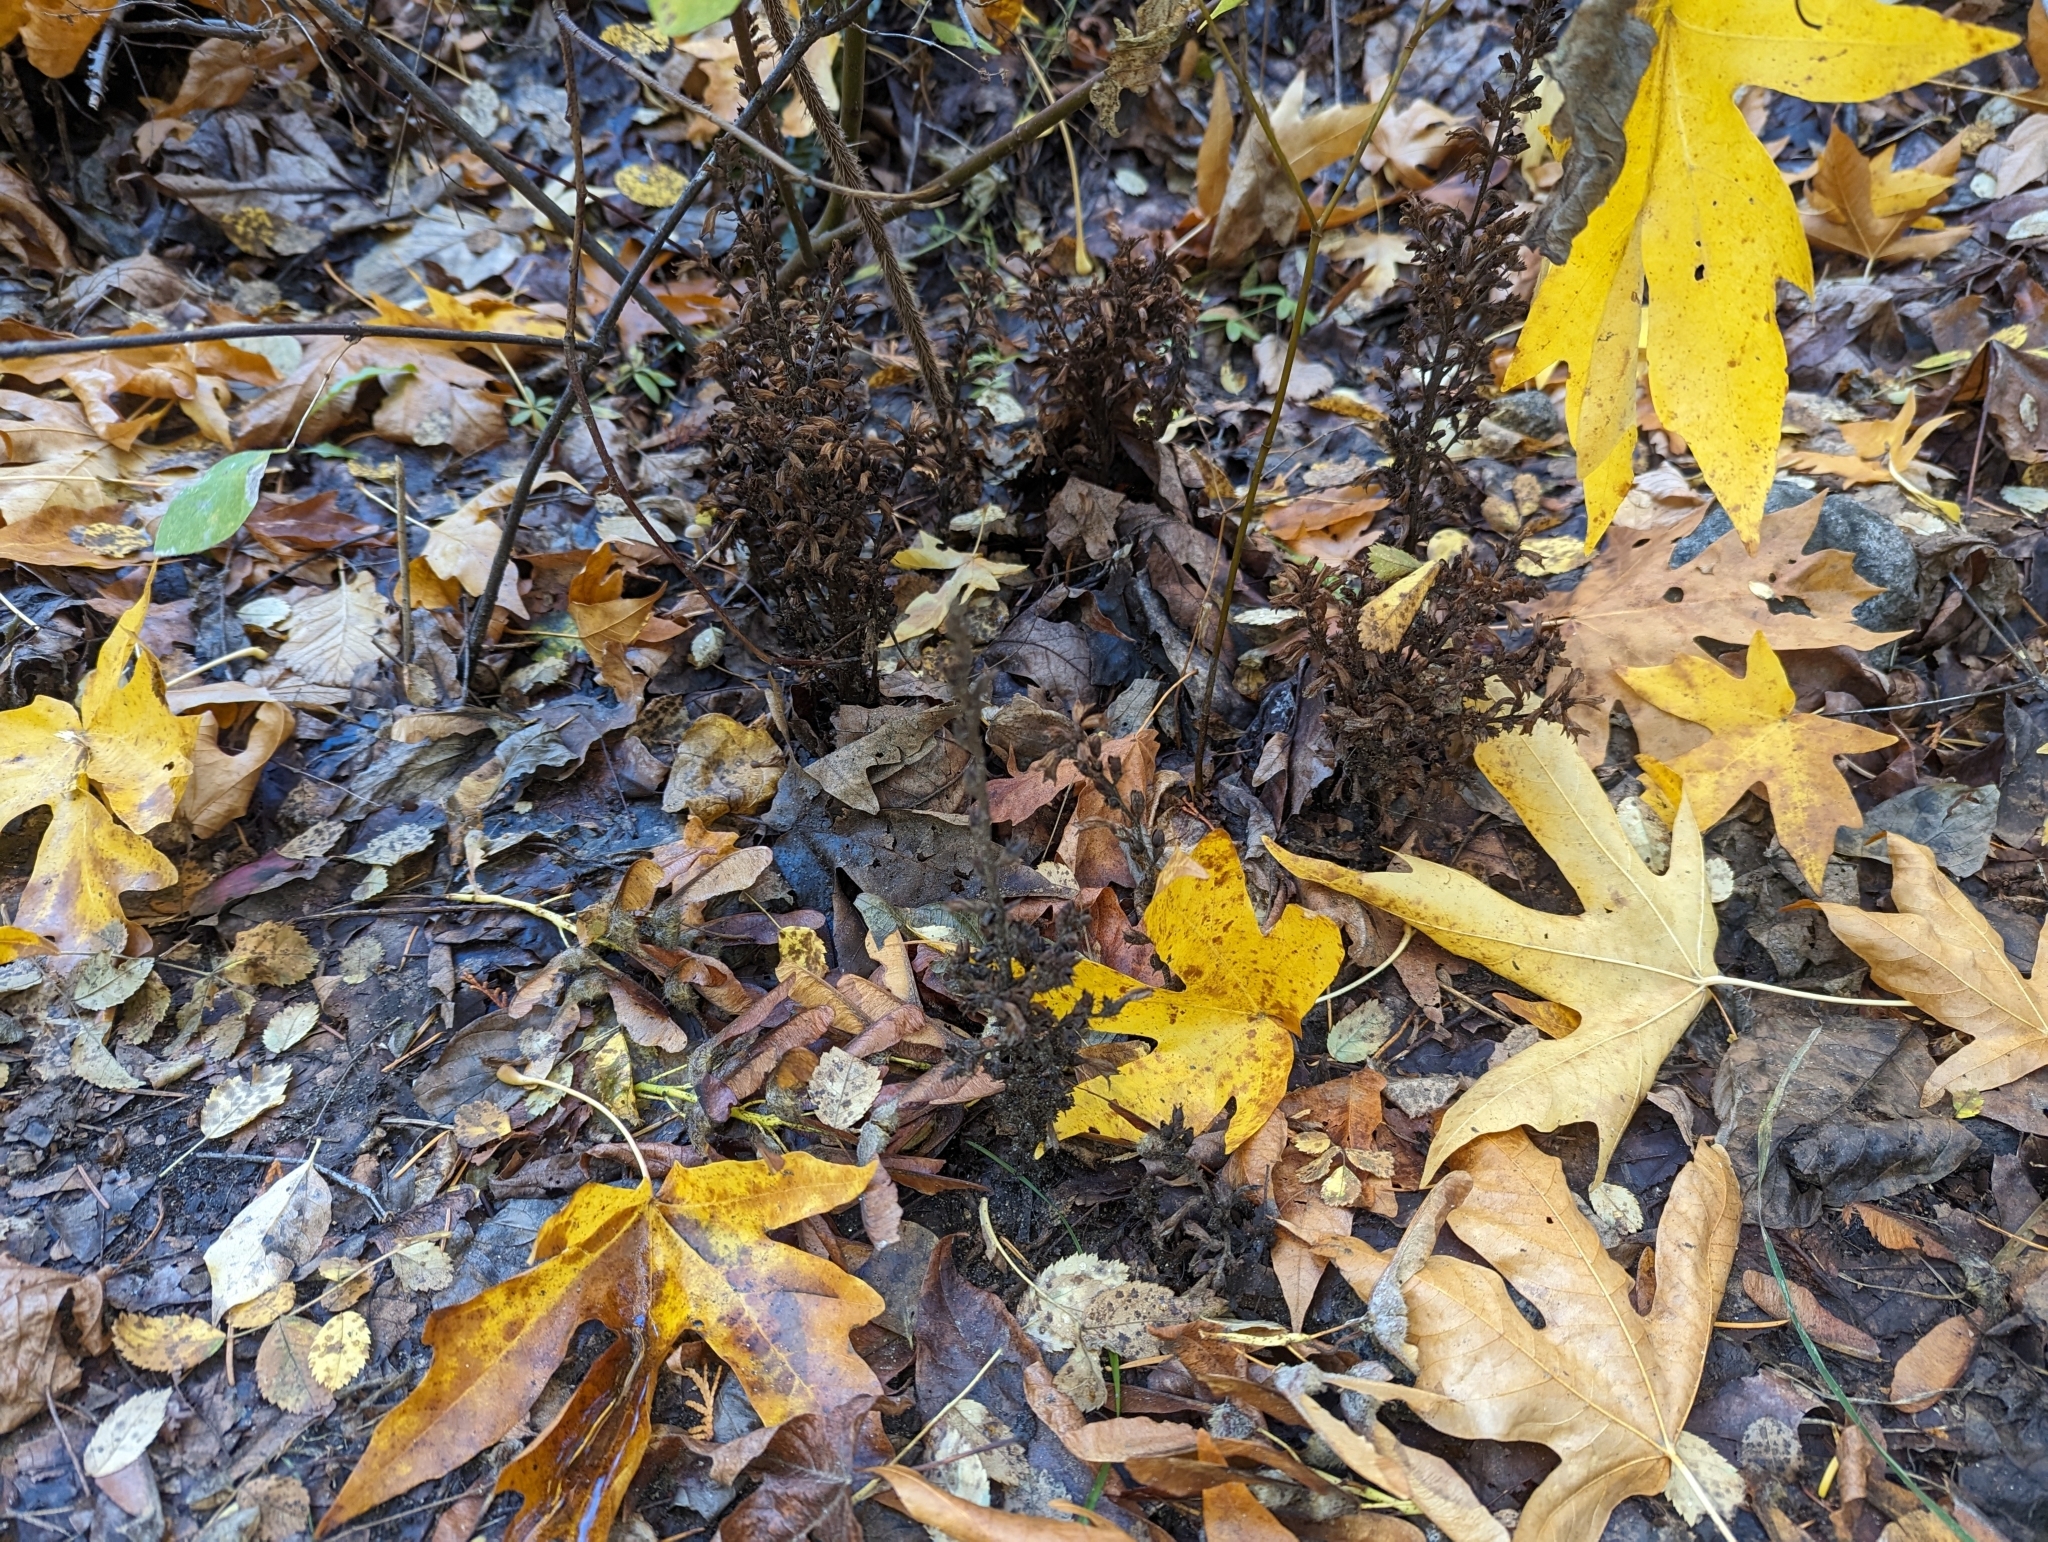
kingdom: Plantae
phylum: Tracheophyta
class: Magnoliopsida
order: Lamiales
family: Orobanchaceae
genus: Aphyllon
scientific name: Aphyllon pinorum
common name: Conifer broomrape
